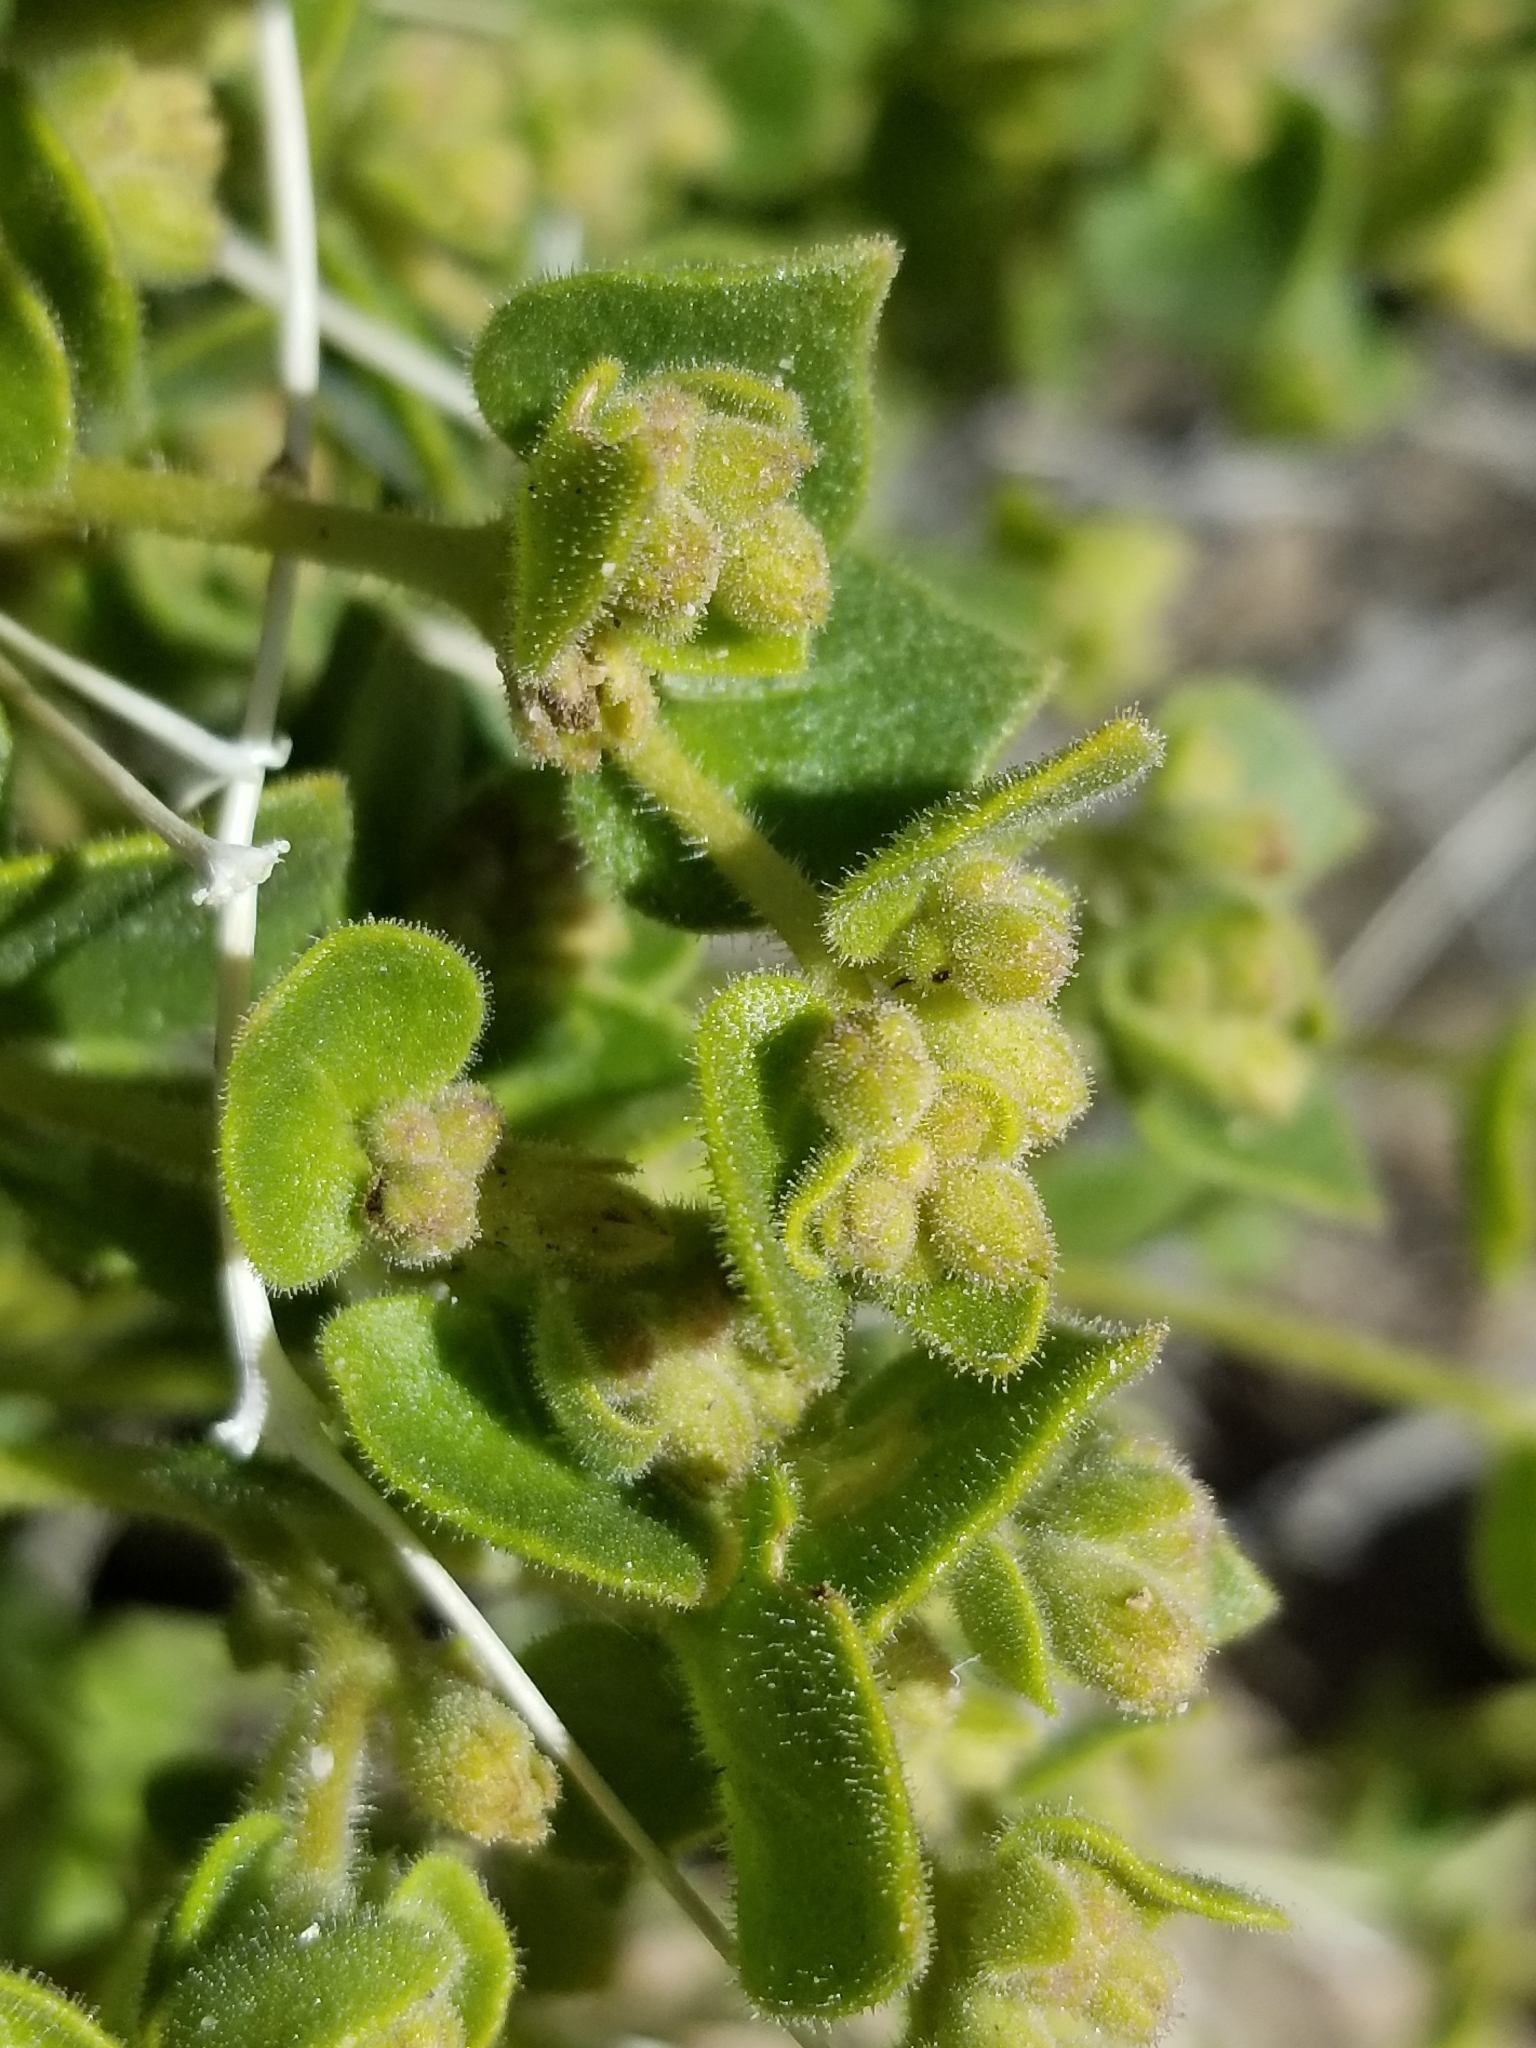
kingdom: Plantae
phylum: Tracheophyta
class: Magnoliopsida
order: Caryophyllales
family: Nyctaginaceae
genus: Mirabilis
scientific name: Mirabilis laevis
